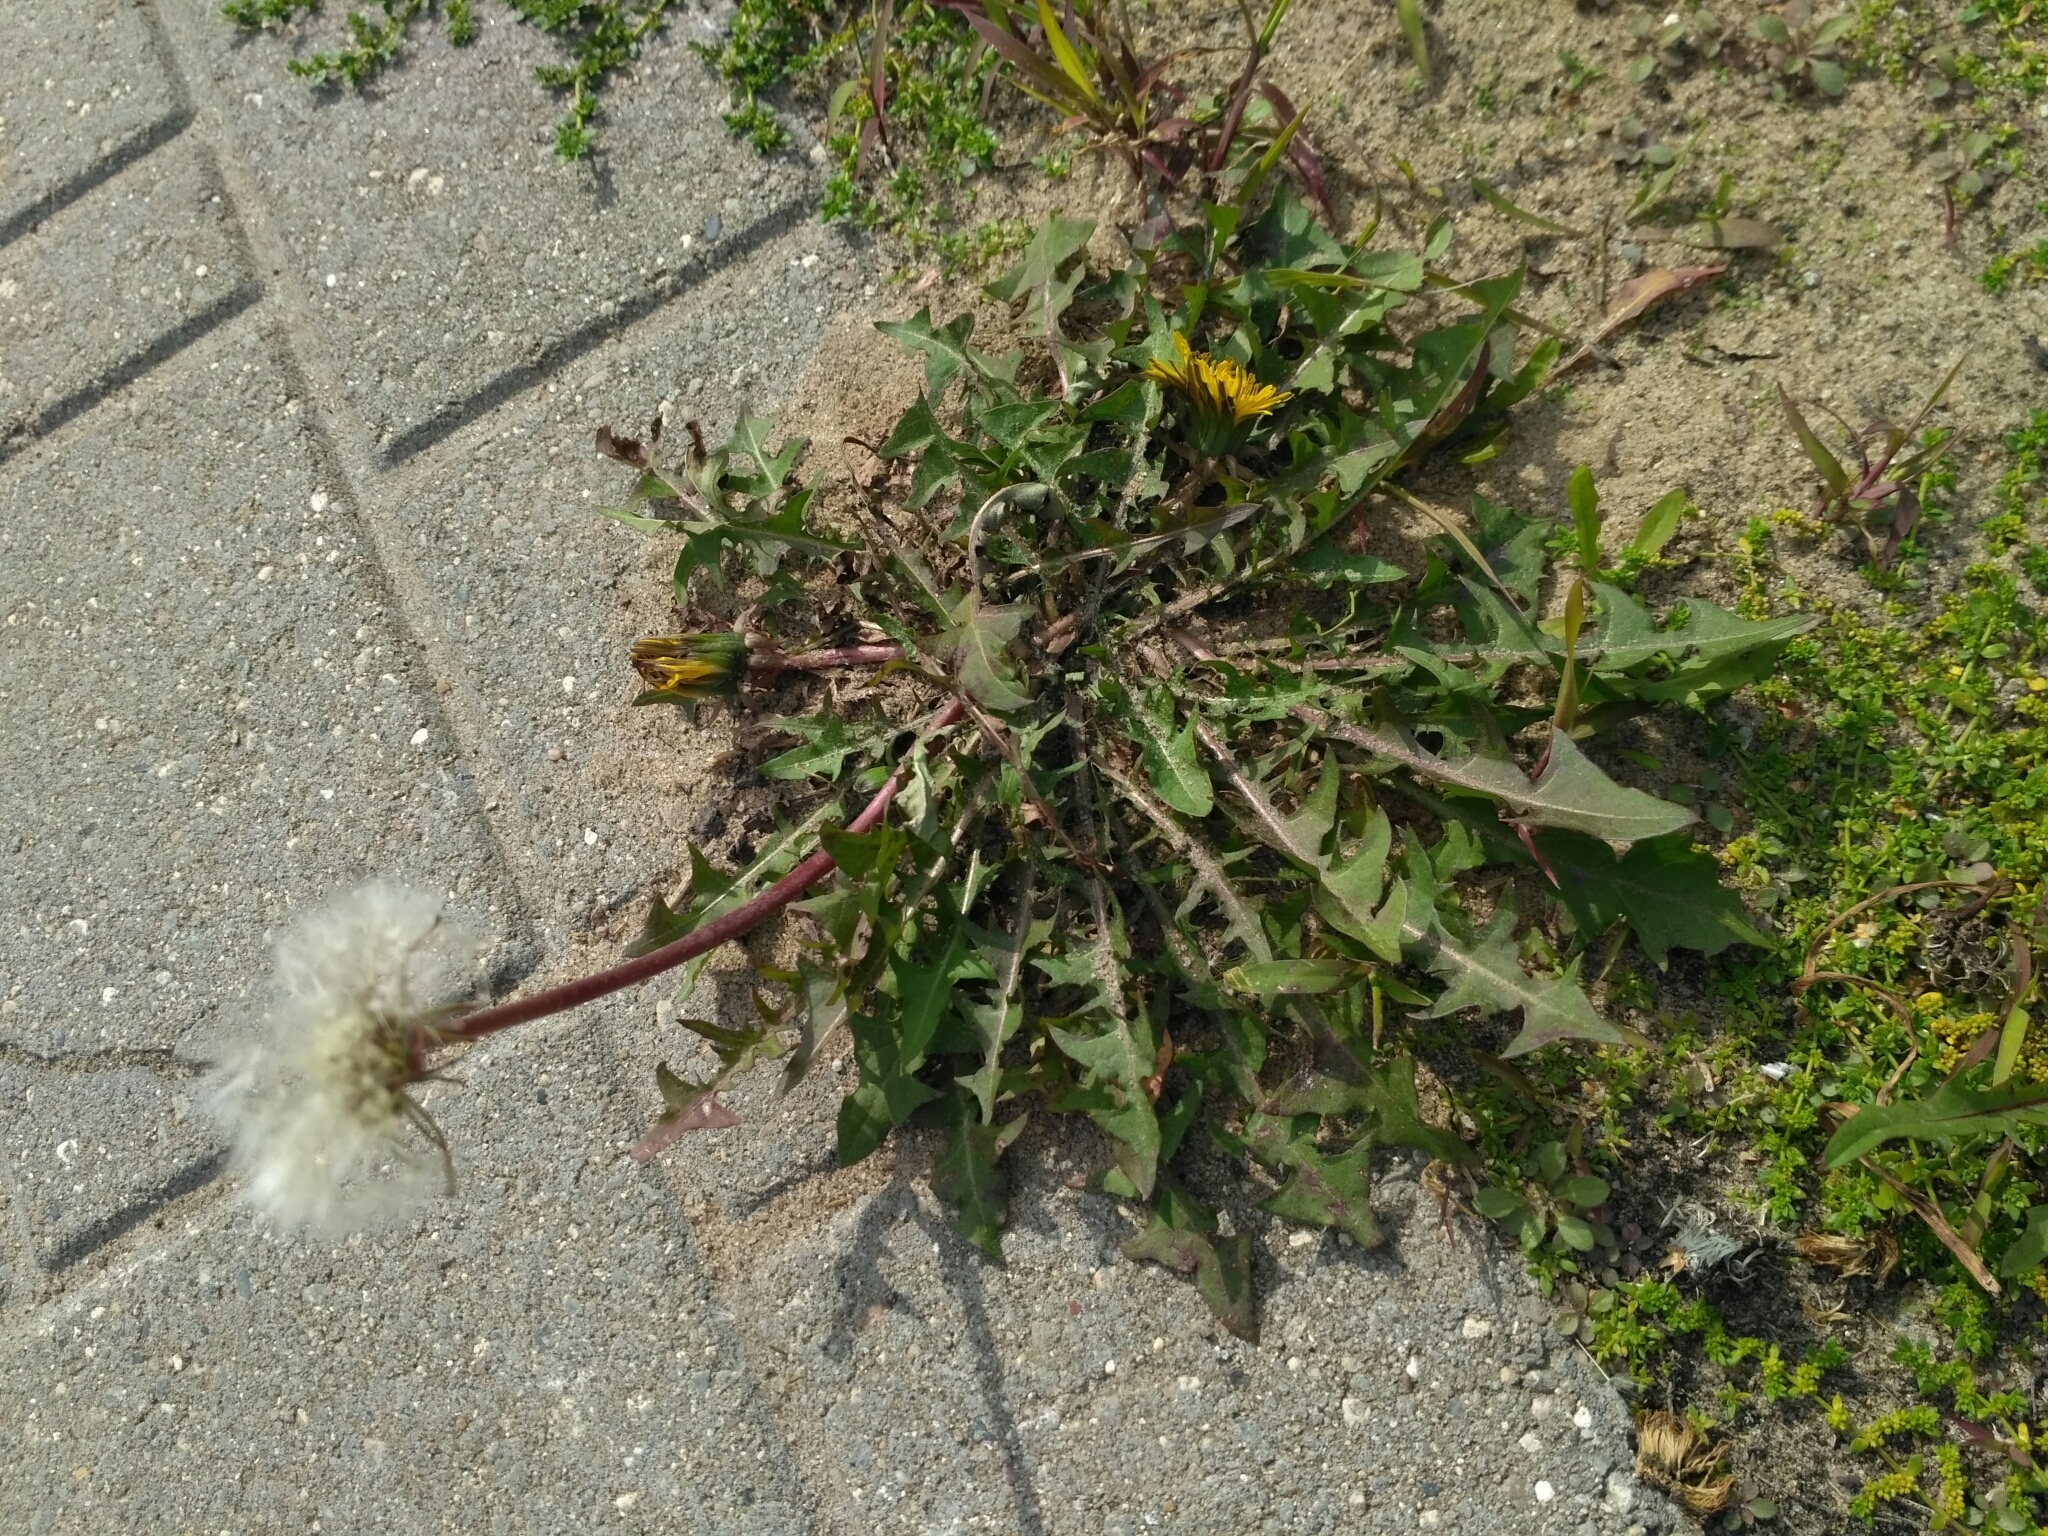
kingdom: Plantae
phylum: Tracheophyta
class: Magnoliopsida
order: Asterales
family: Asteraceae
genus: Taraxacum
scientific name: Taraxacum officinale
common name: Common dandelion
